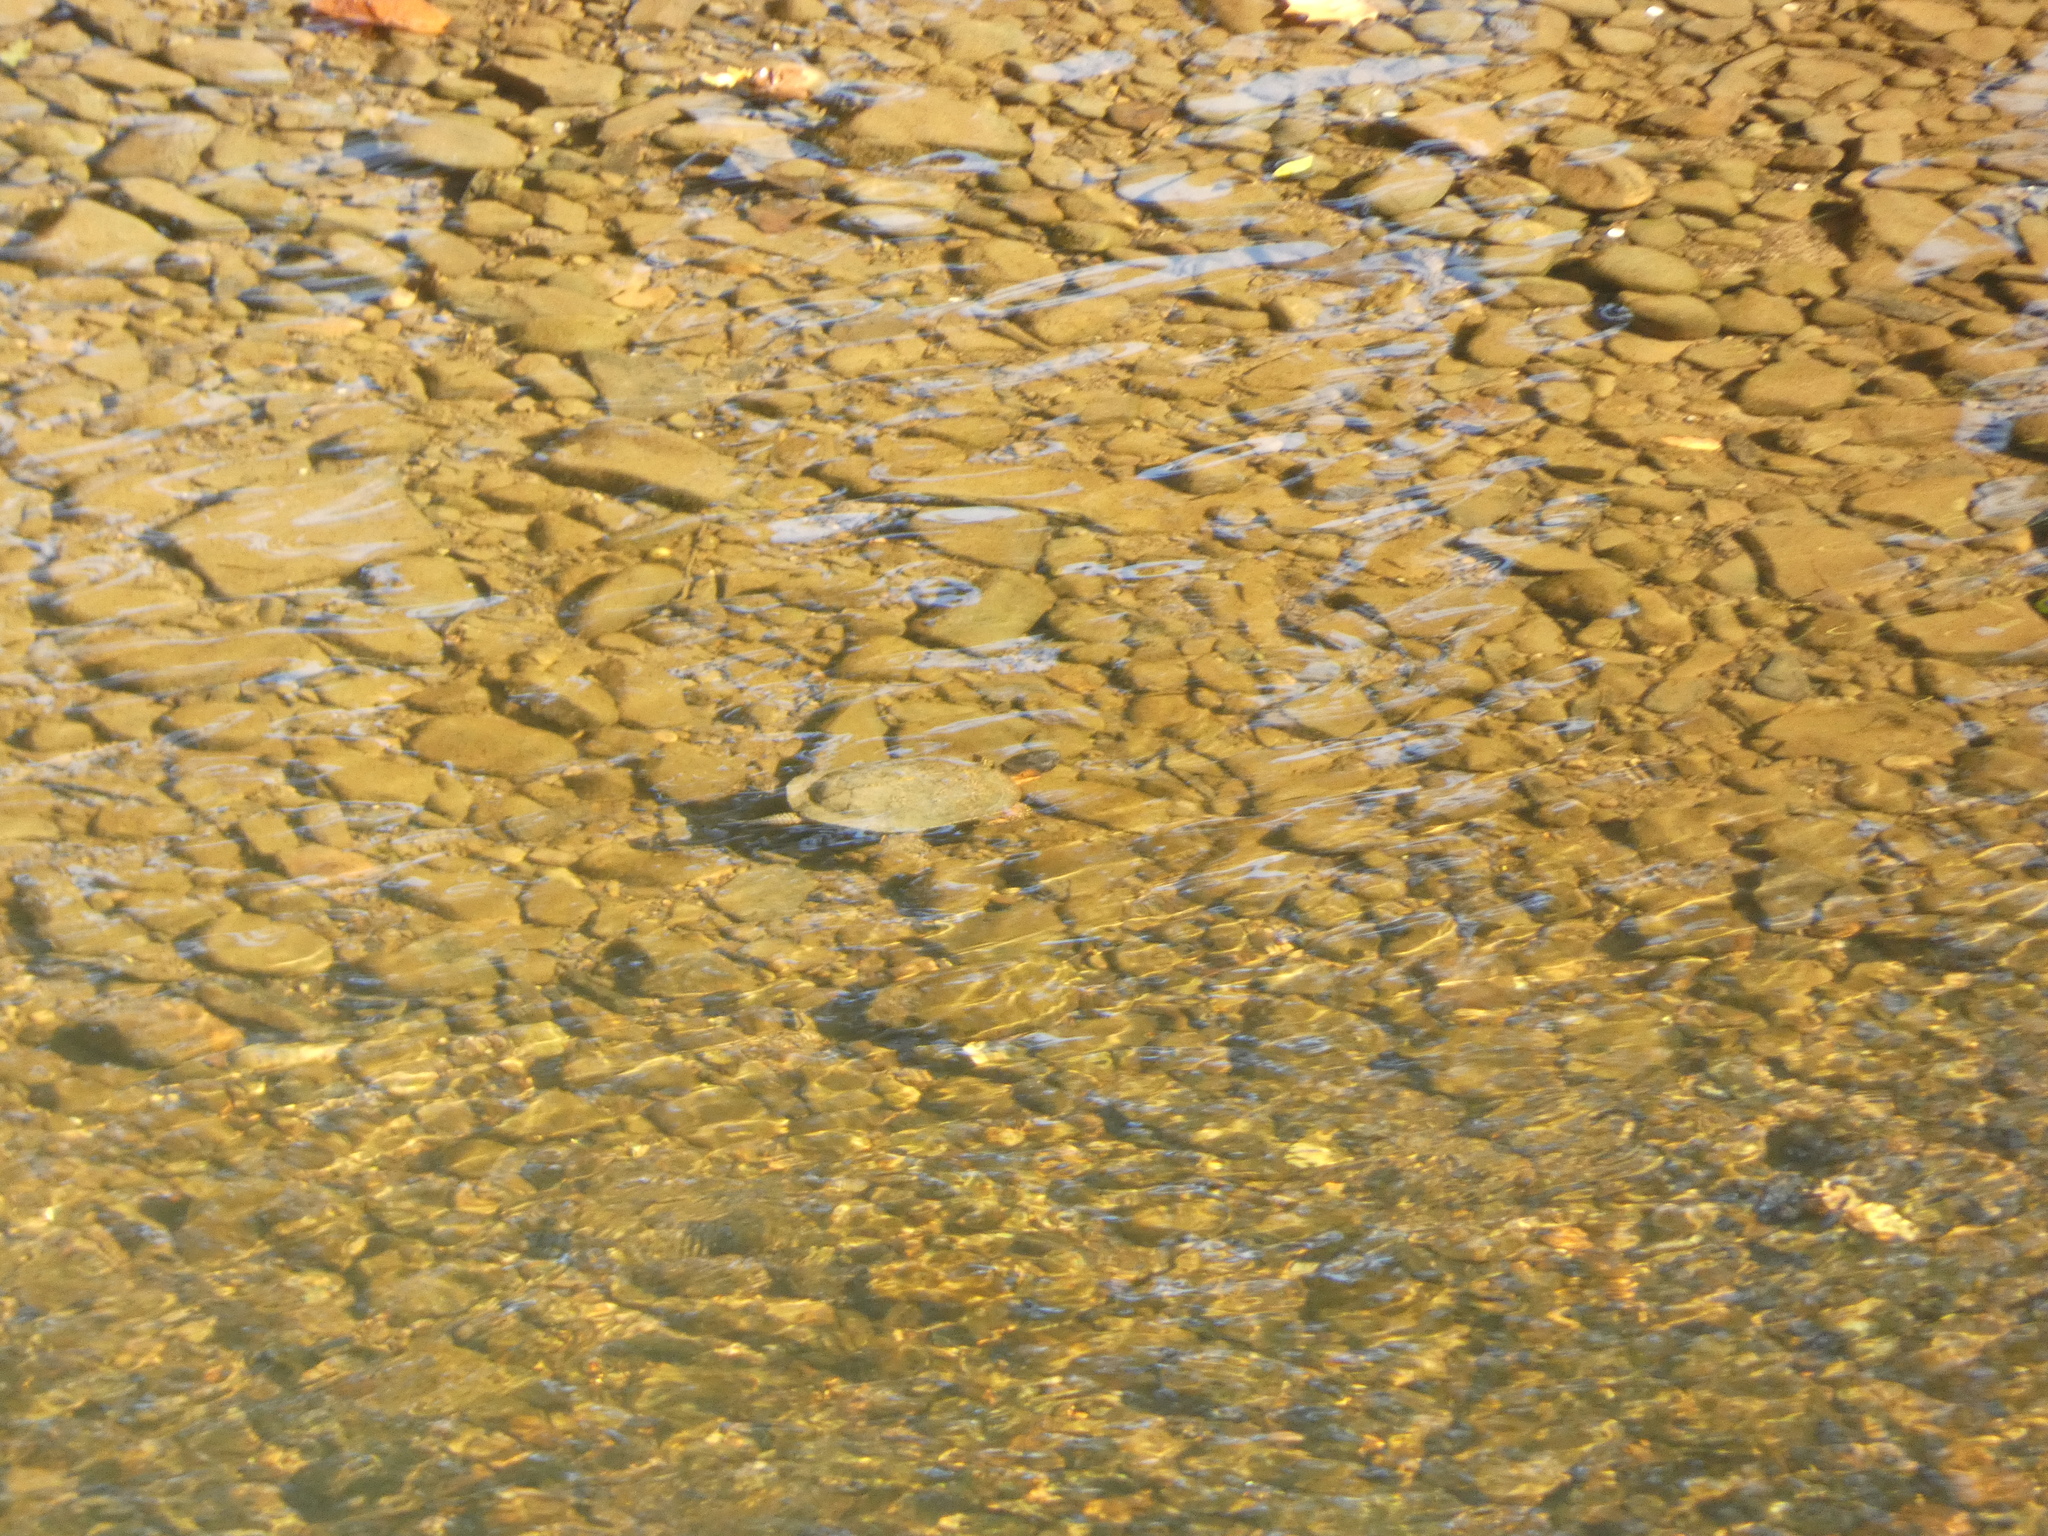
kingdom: Animalia
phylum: Chordata
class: Testudines
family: Emydidae
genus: Glyptemys
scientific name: Glyptemys insculpta
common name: Wood turtle
